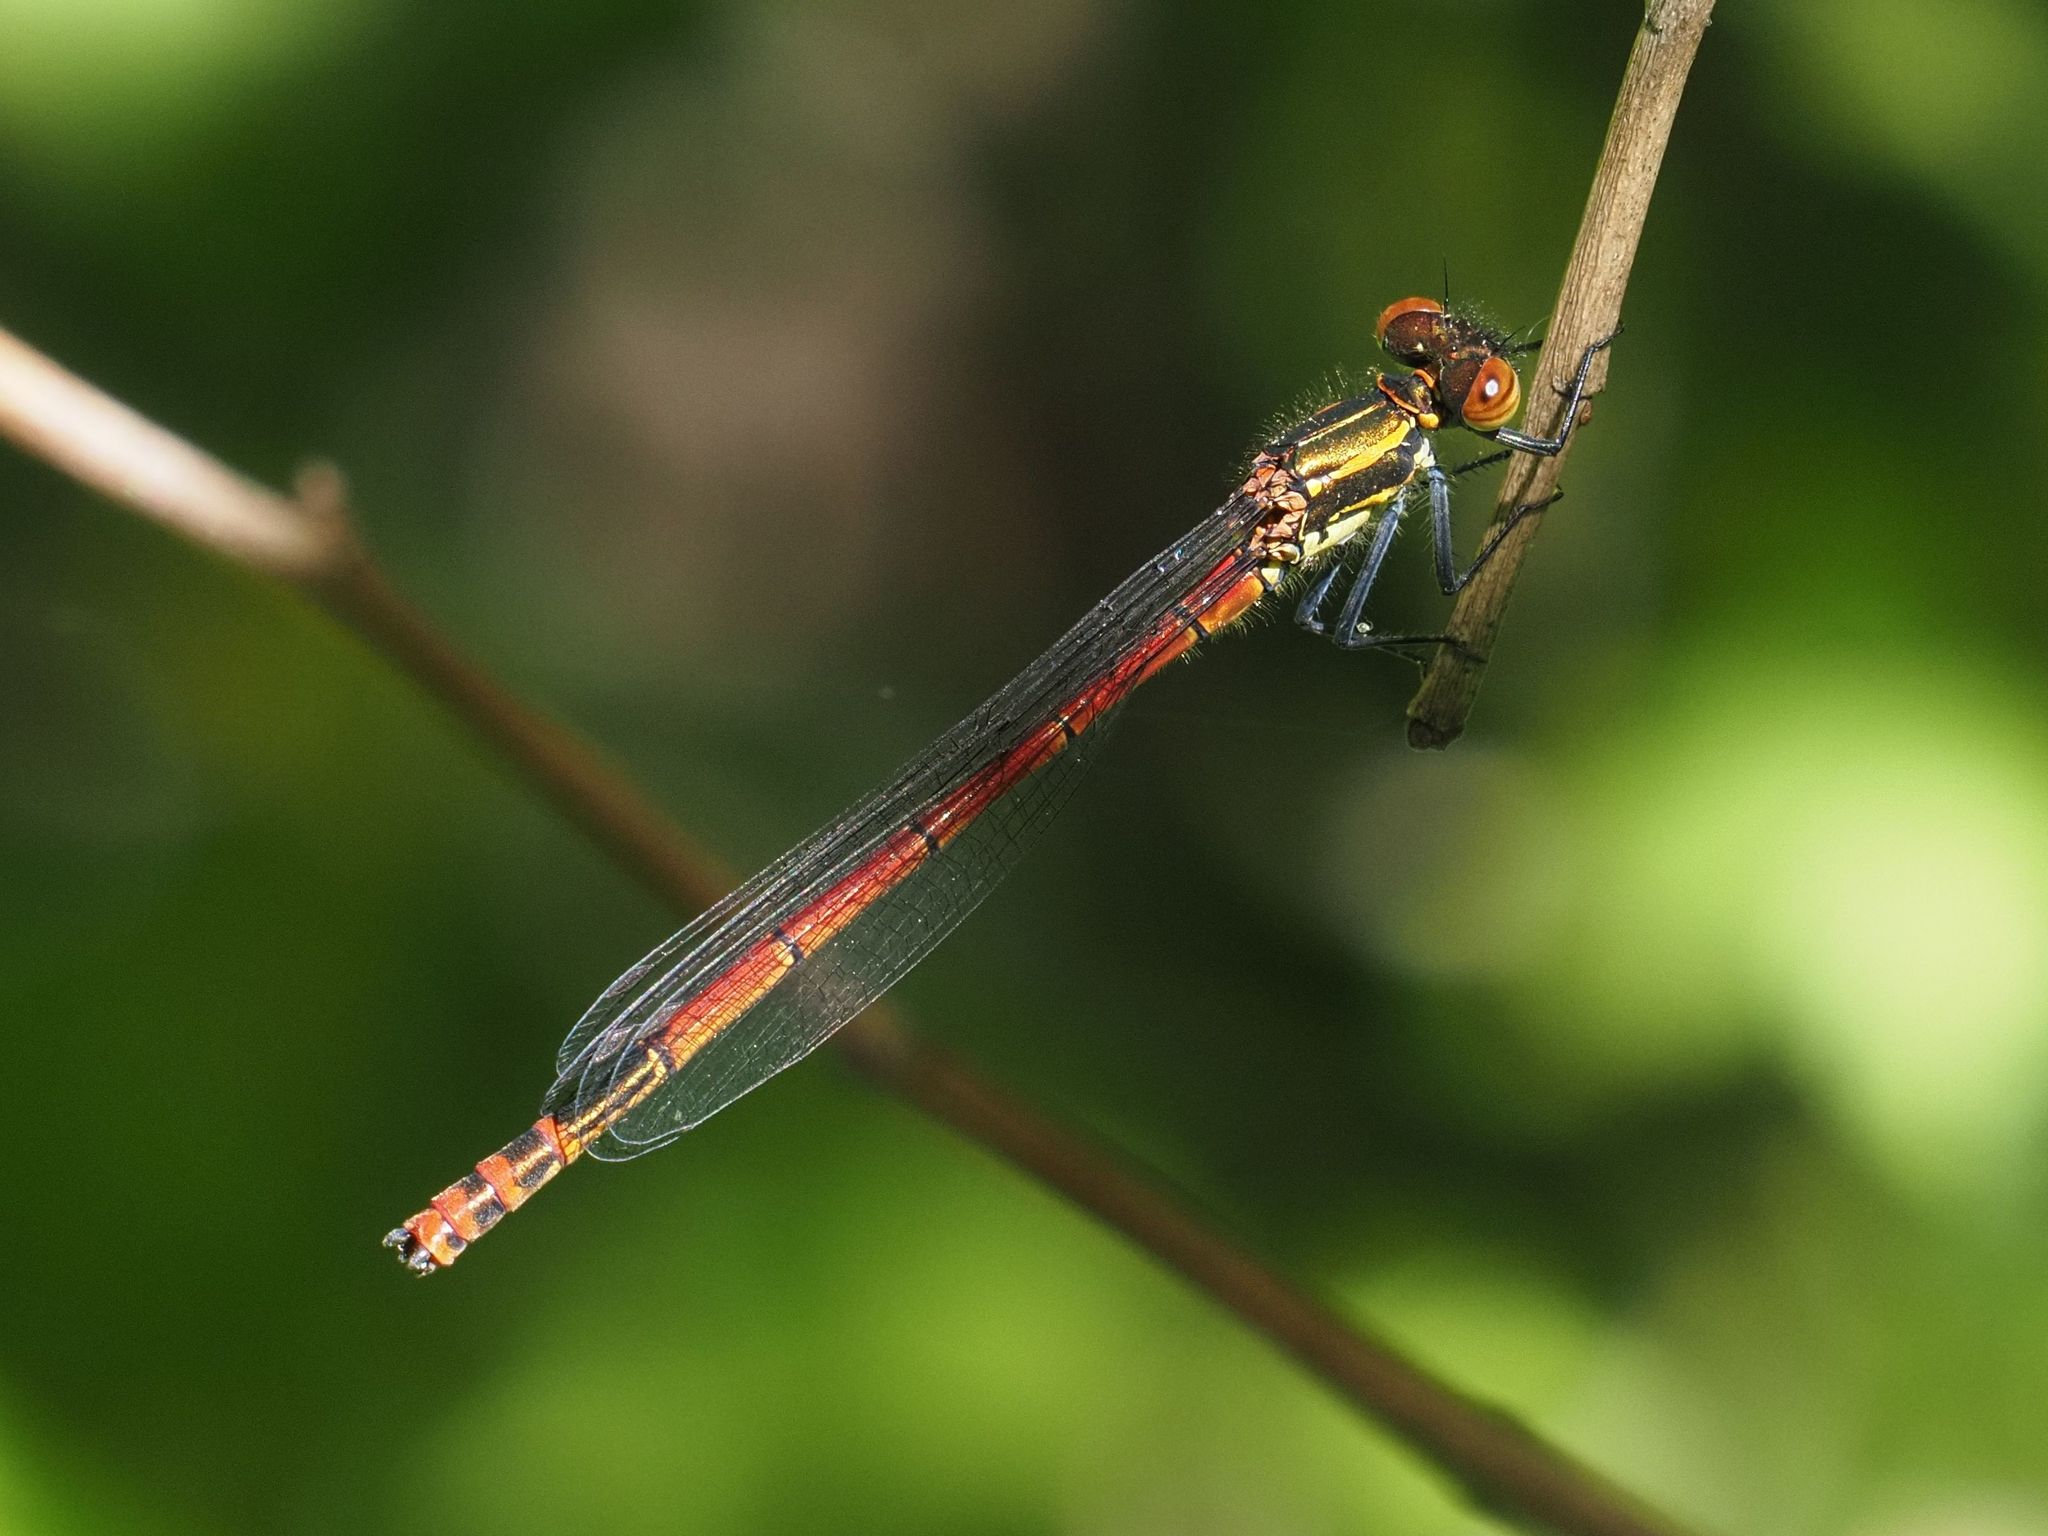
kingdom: Animalia
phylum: Arthropoda
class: Insecta
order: Odonata
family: Coenagrionidae
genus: Pyrrhosoma
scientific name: Pyrrhosoma nymphula
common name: Large red damsel
